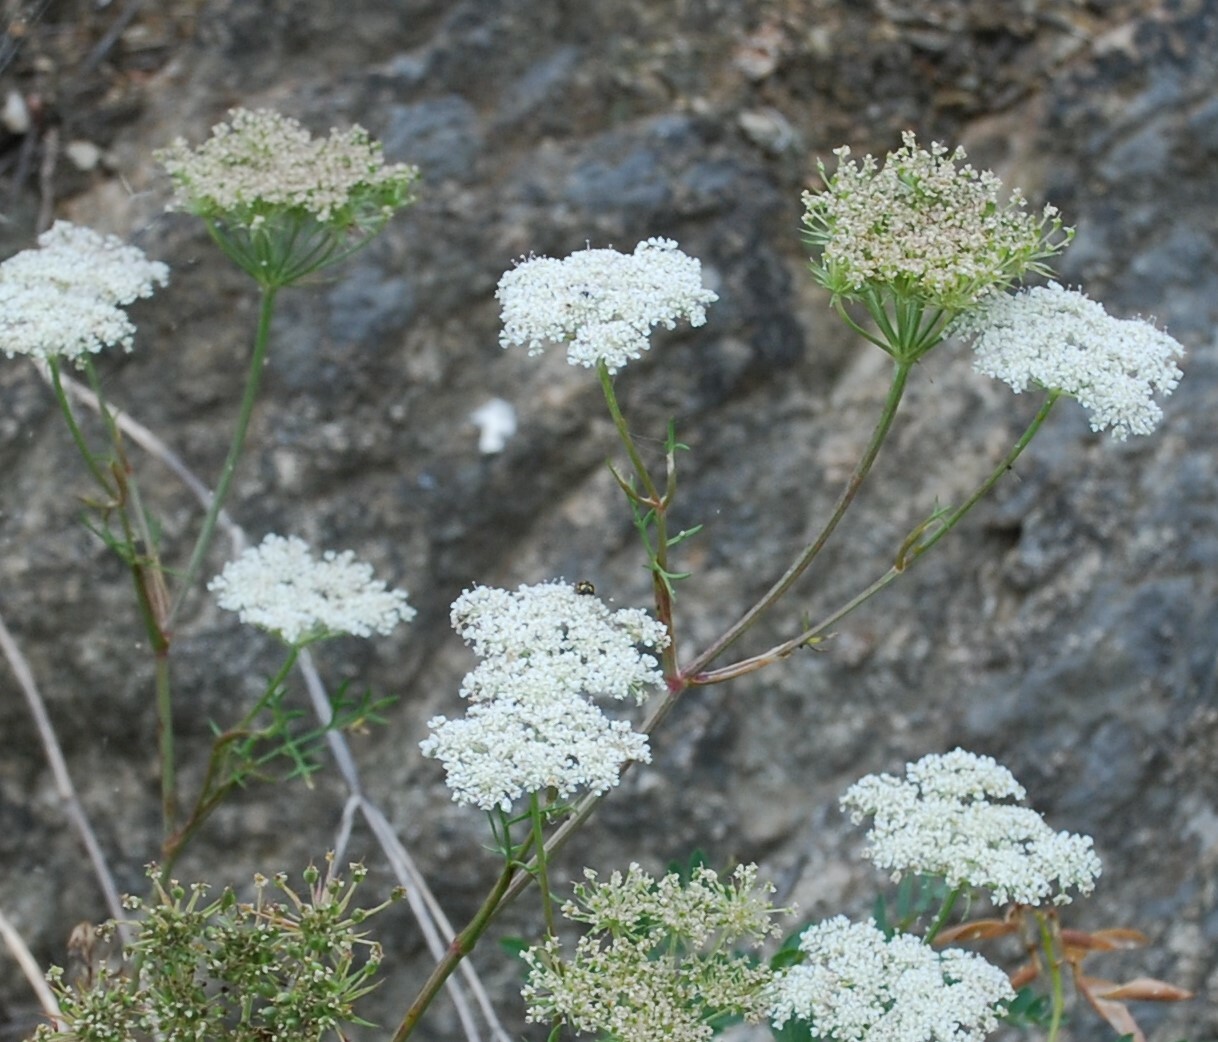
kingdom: Plantae
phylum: Tracheophyta
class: Magnoliopsida
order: Apiales
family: Apiaceae
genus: Kitagawia
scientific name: Kitagawia baicalensis
